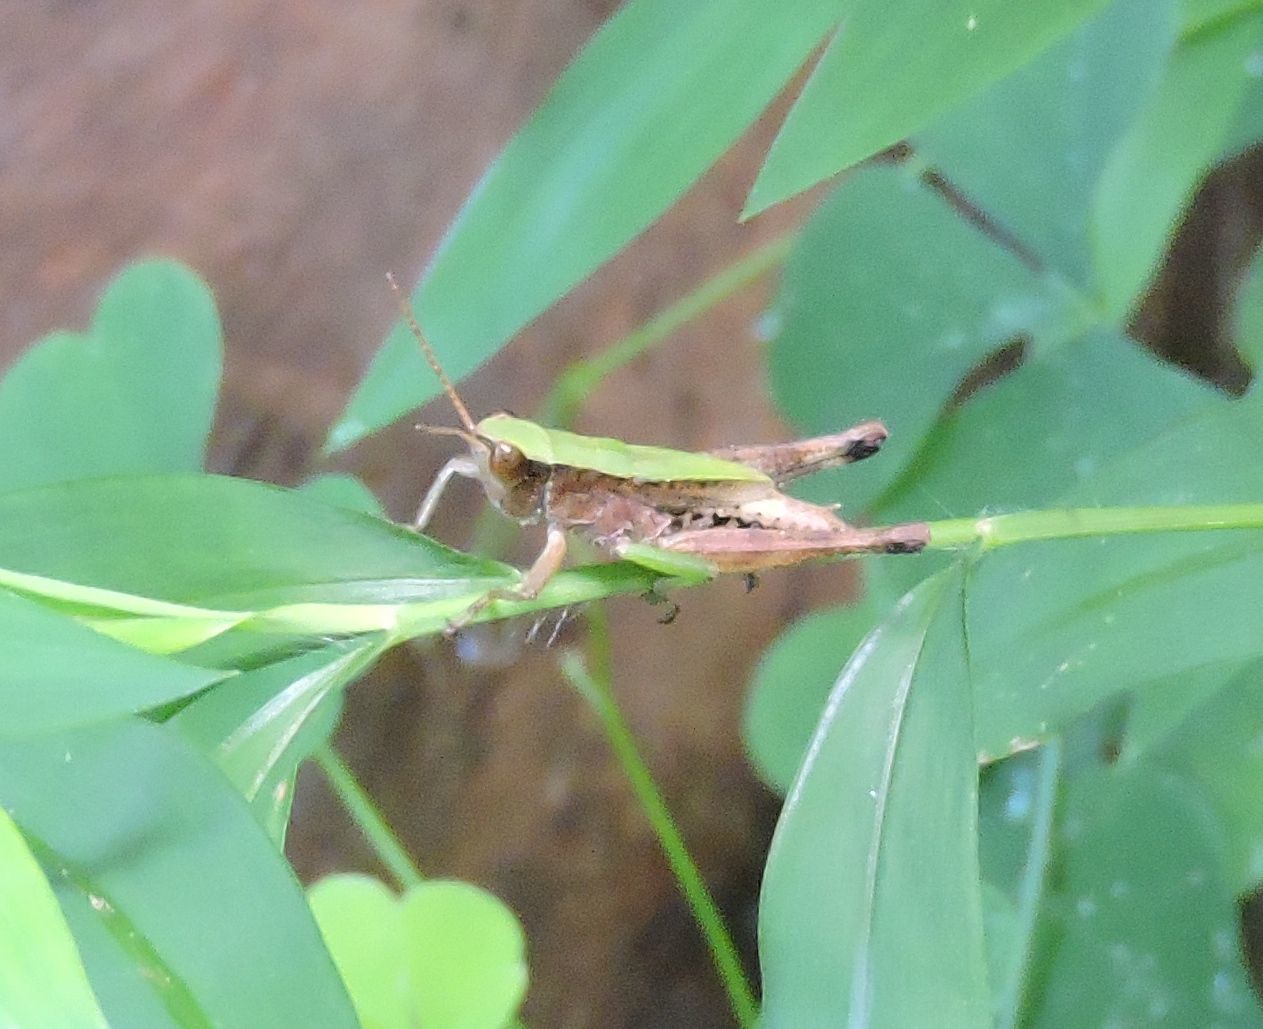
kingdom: Animalia
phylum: Arthropoda
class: Insecta
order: Orthoptera
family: Acrididae
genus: Dichromorpha
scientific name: Dichromorpha viridis
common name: Short-winged green grasshopper
